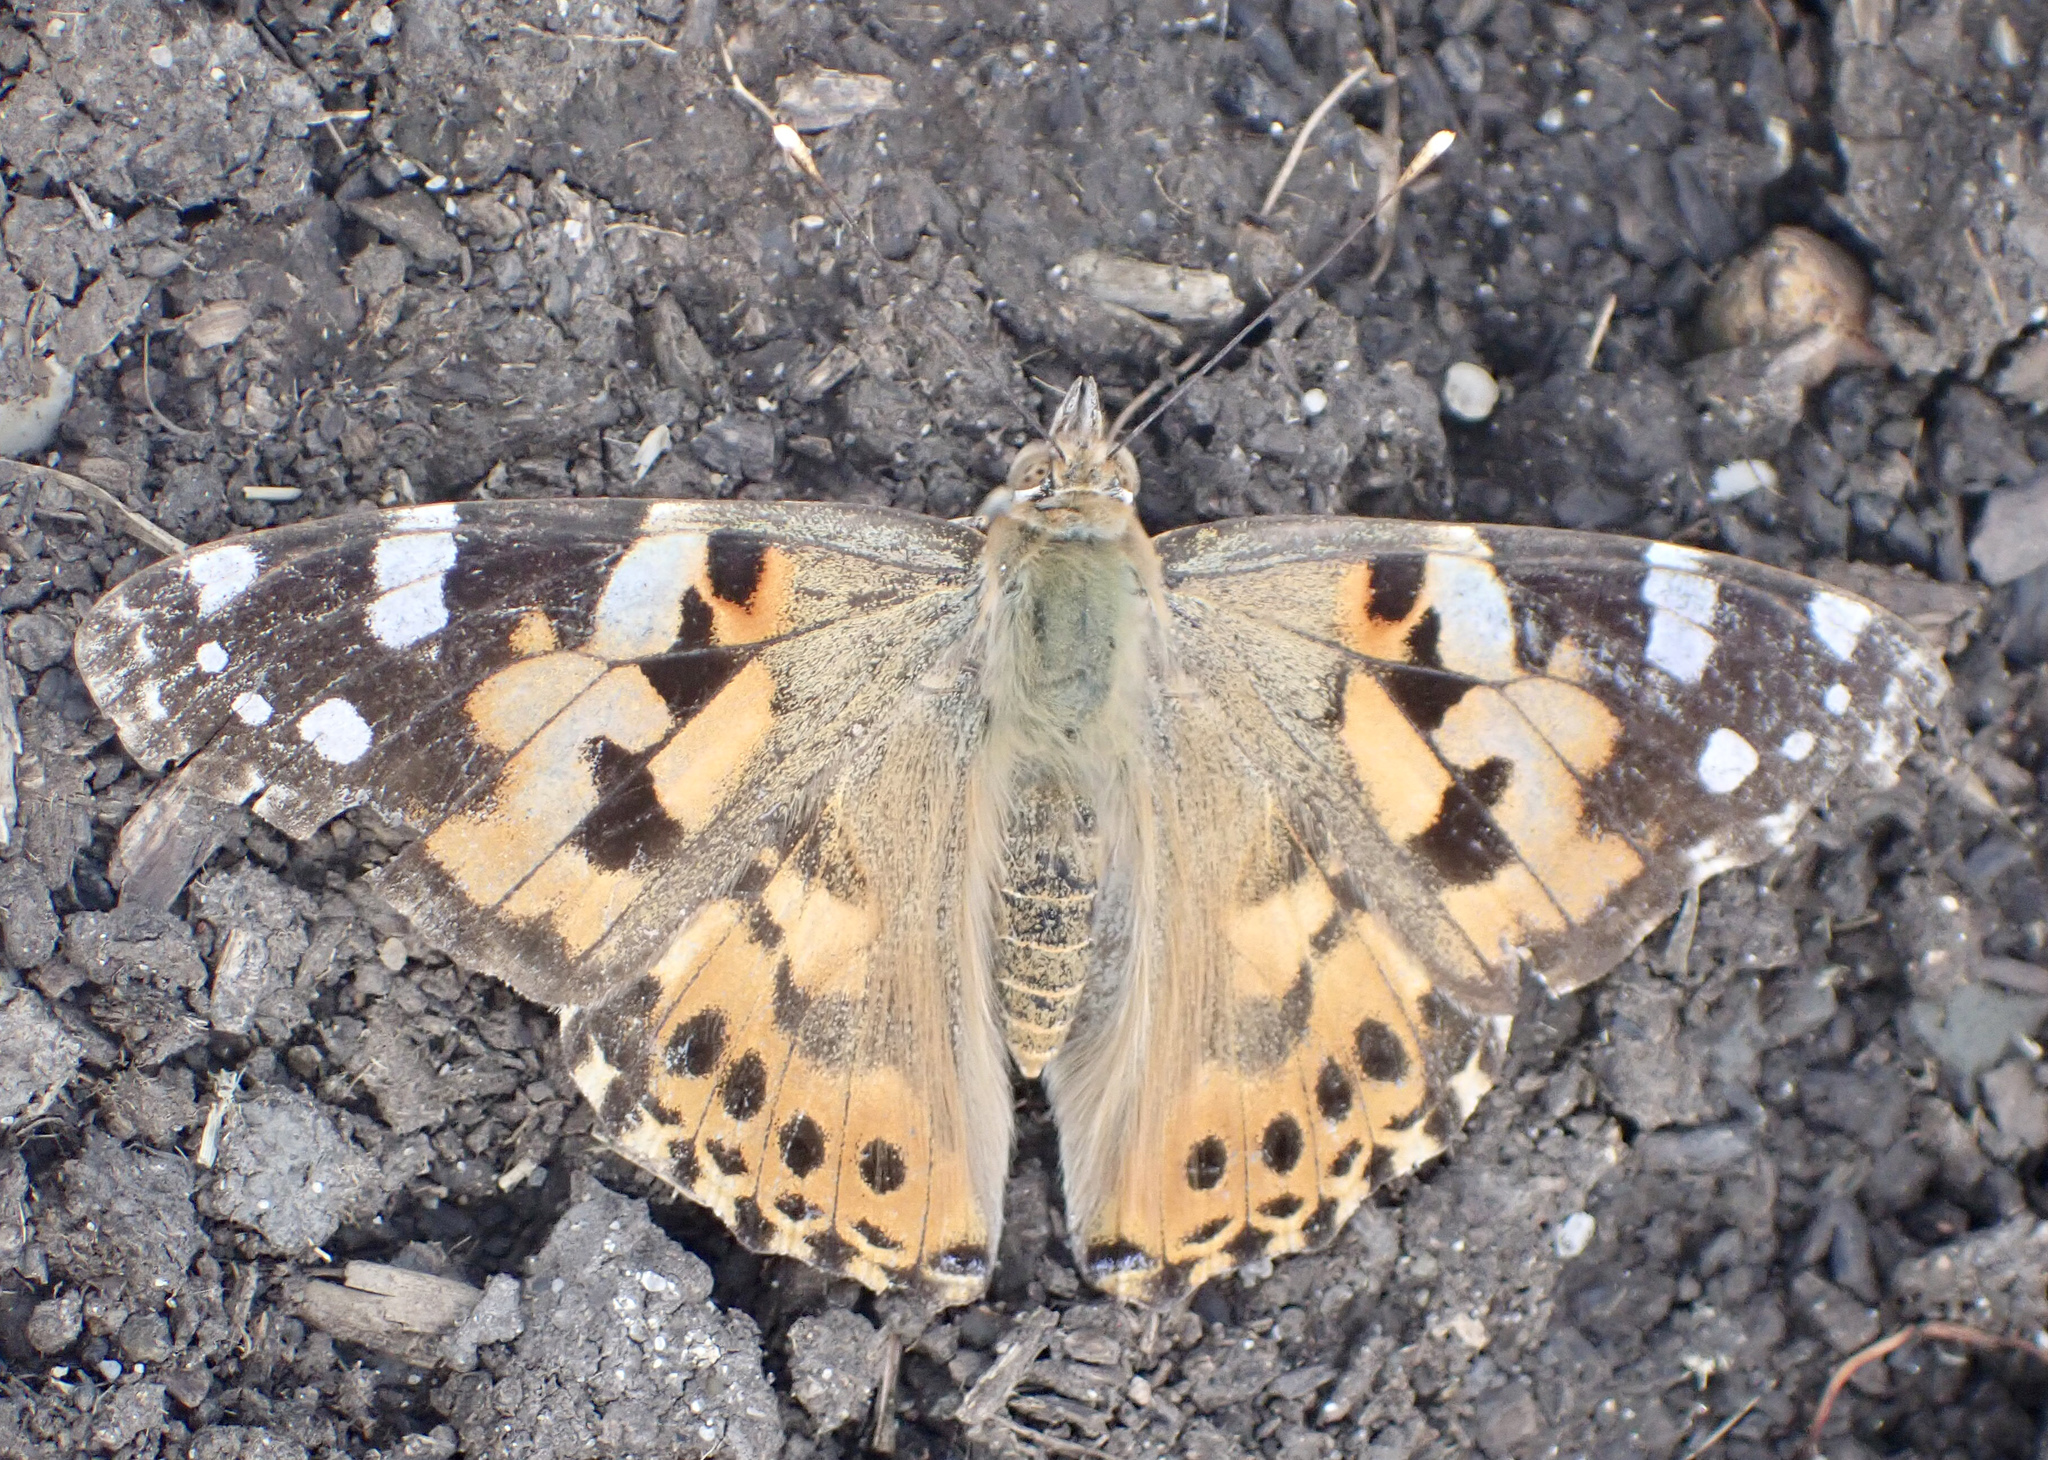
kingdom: Animalia
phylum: Arthropoda
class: Insecta
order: Lepidoptera
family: Nymphalidae
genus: Vanessa
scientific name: Vanessa cardui
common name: Painted lady
